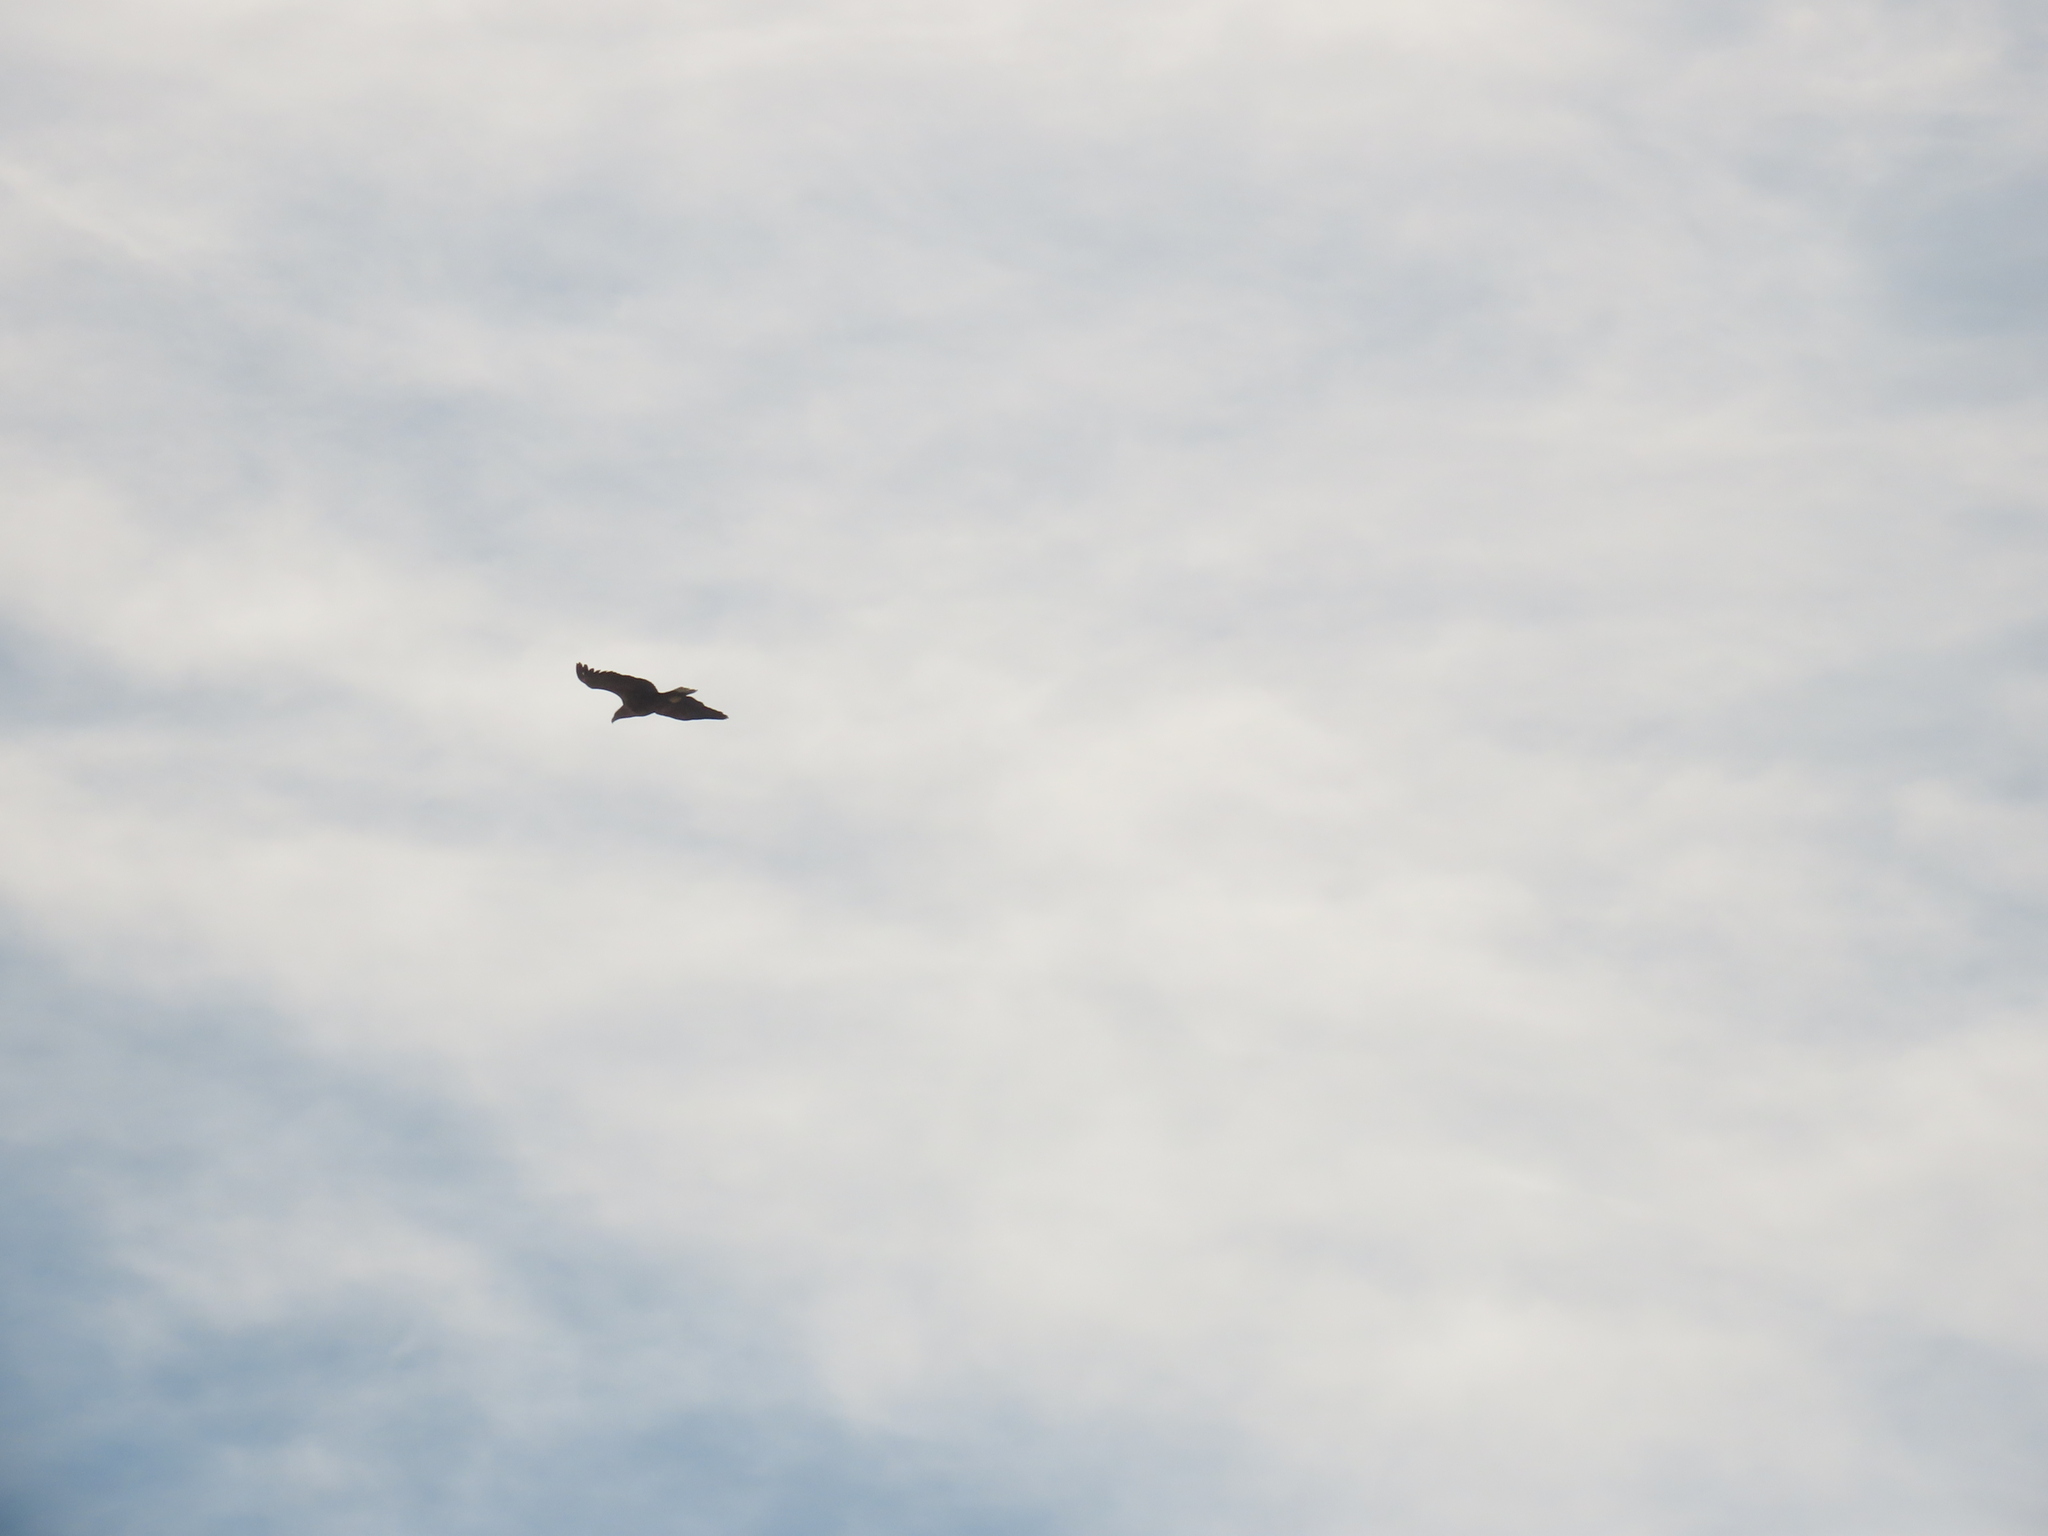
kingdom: Animalia
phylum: Chordata
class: Aves
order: Accipitriformes
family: Accipitridae
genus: Haliaeetus
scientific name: Haliaeetus albicilla
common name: White-tailed eagle
